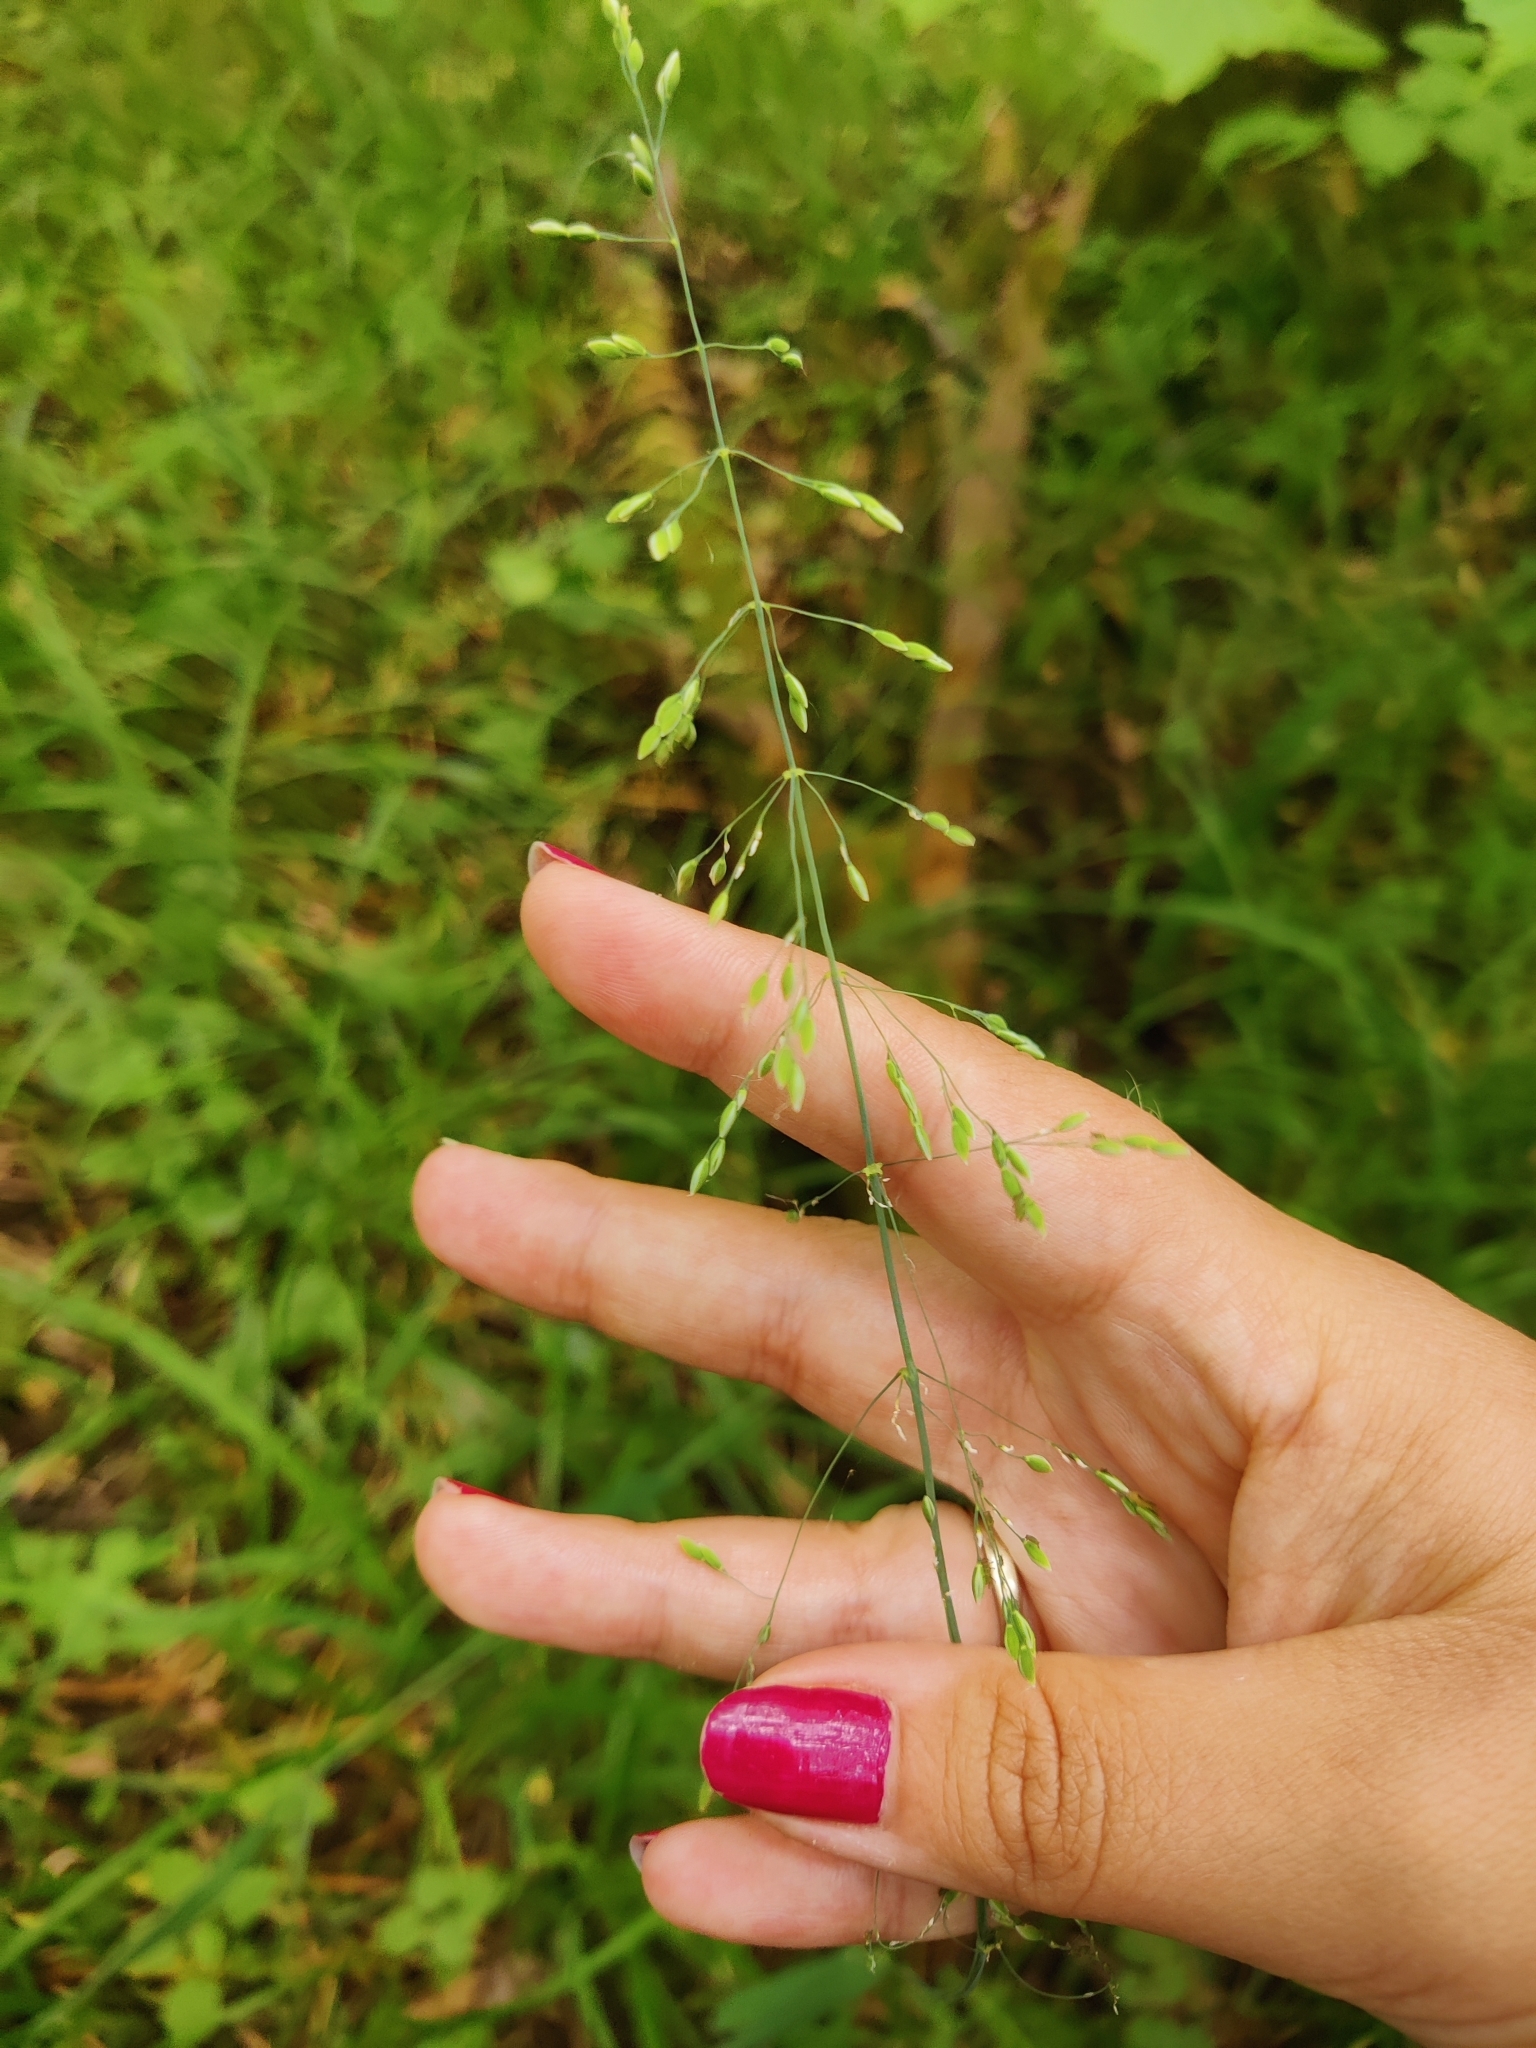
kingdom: Plantae
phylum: Tracheophyta
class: Liliopsida
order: Poales
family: Poaceae
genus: Milium
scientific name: Milium effusum
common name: Wood millet
